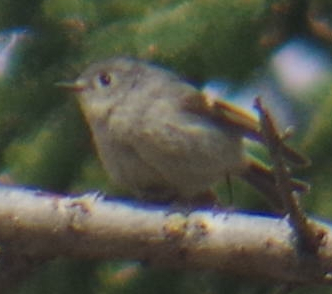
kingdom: Animalia
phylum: Chordata
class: Aves
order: Passeriformes
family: Regulidae
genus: Regulus
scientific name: Regulus calendula
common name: Ruby-crowned kinglet
